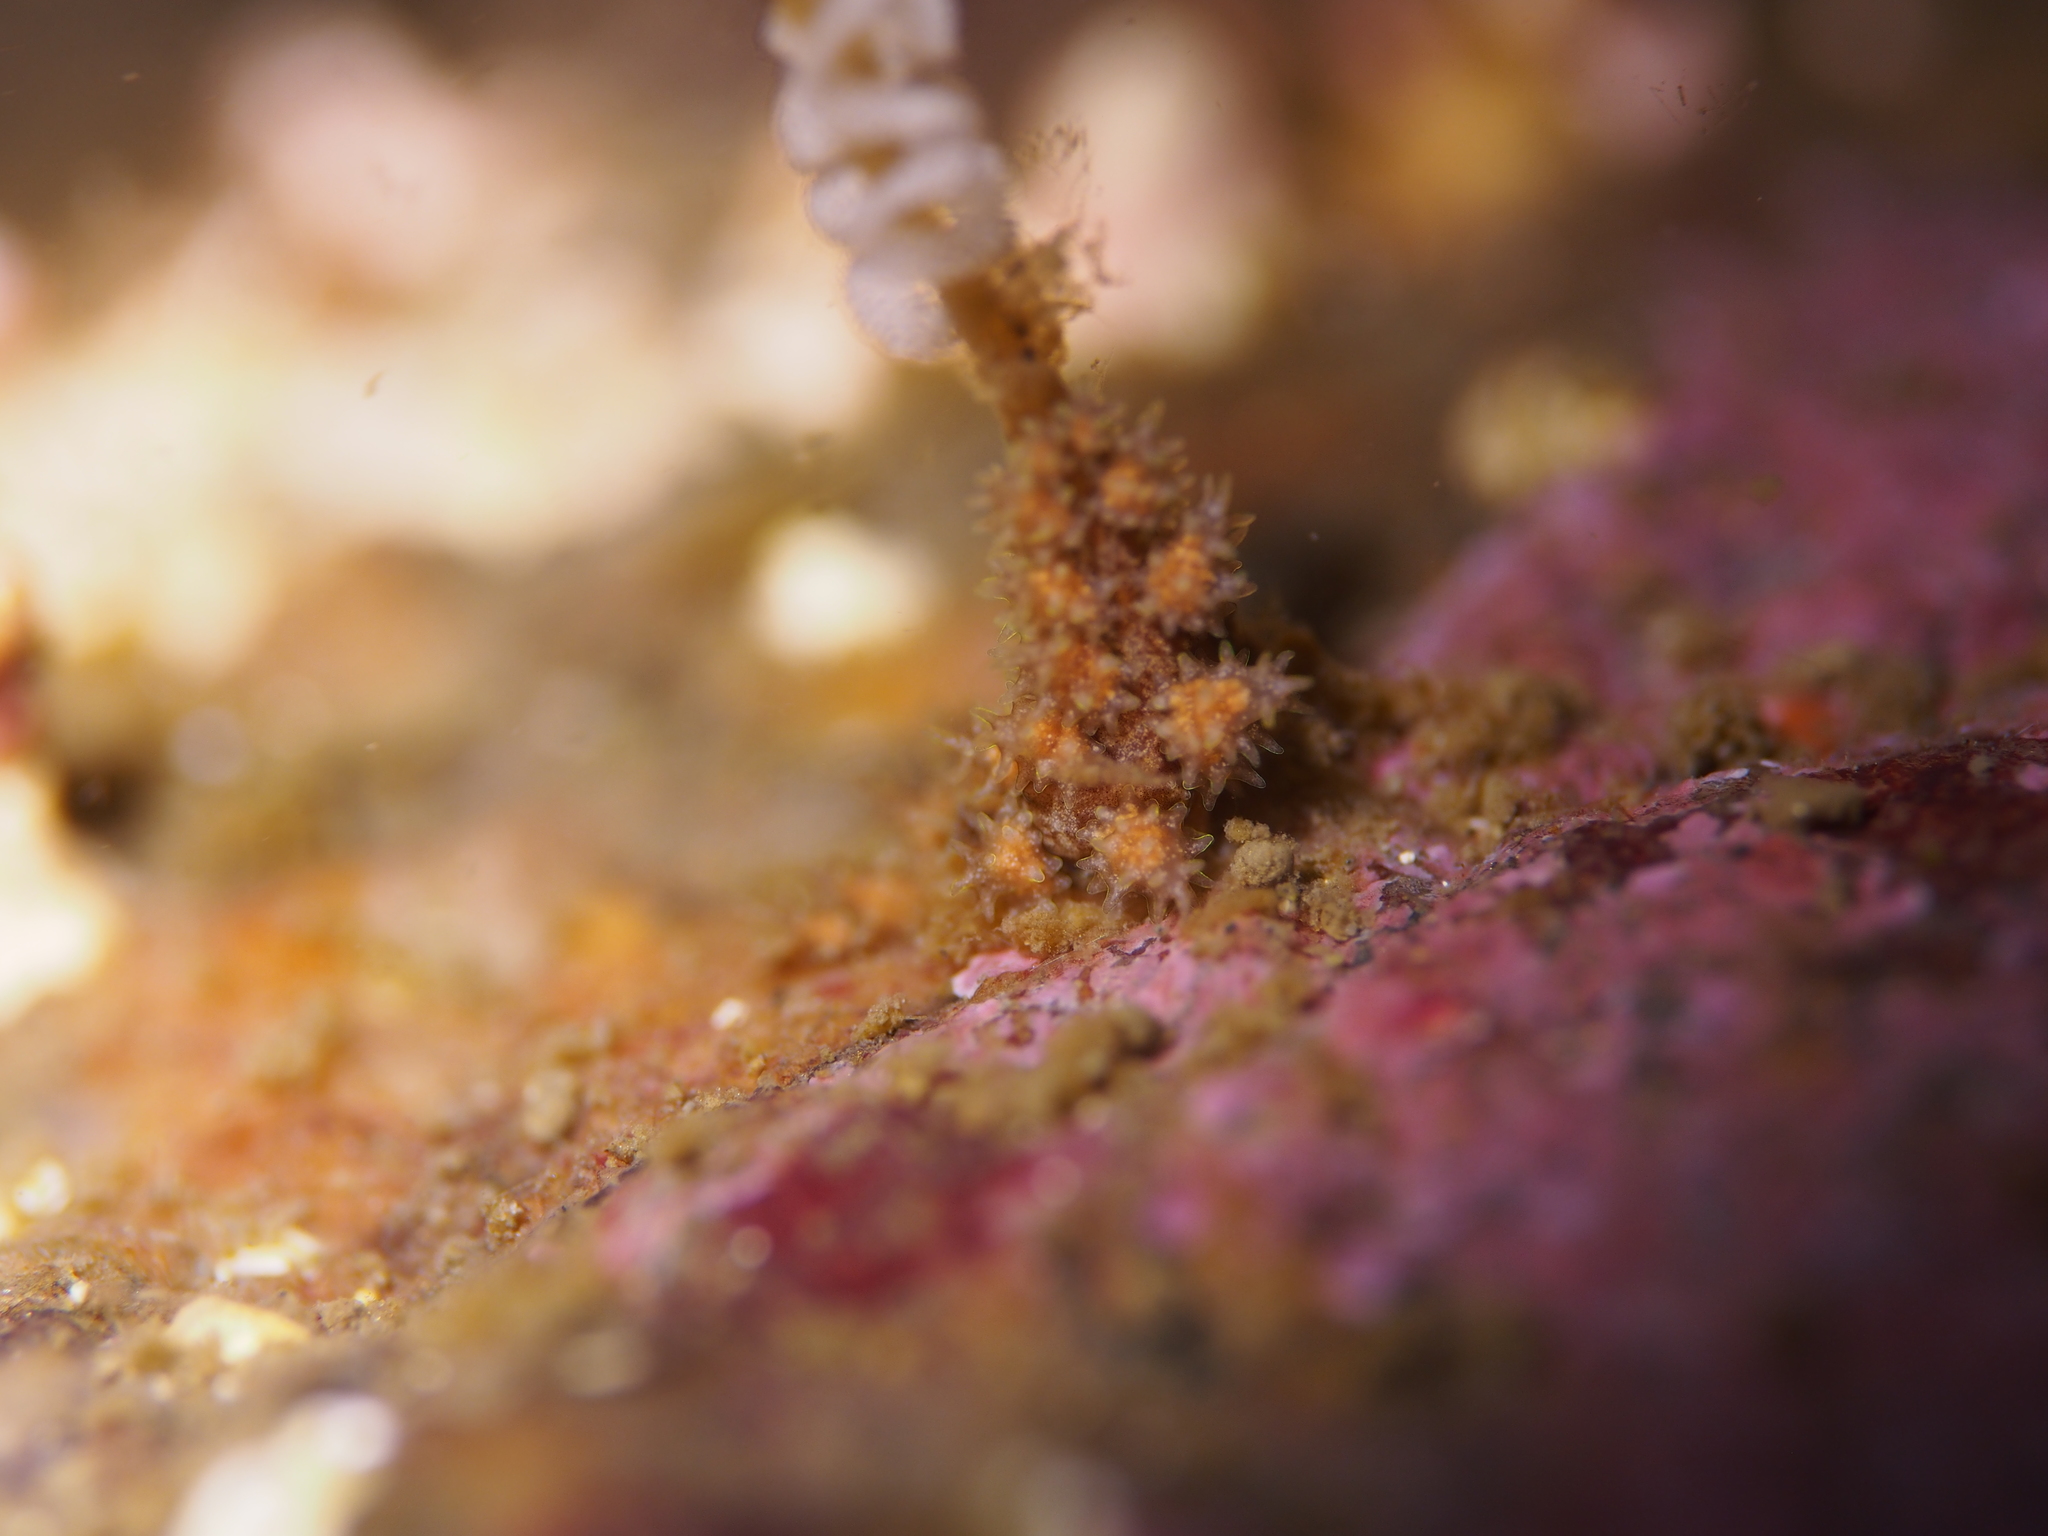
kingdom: Animalia
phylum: Mollusca
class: Gastropoda
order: Nudibranchia
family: Dotidae
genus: Doto
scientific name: Doto hystrix
